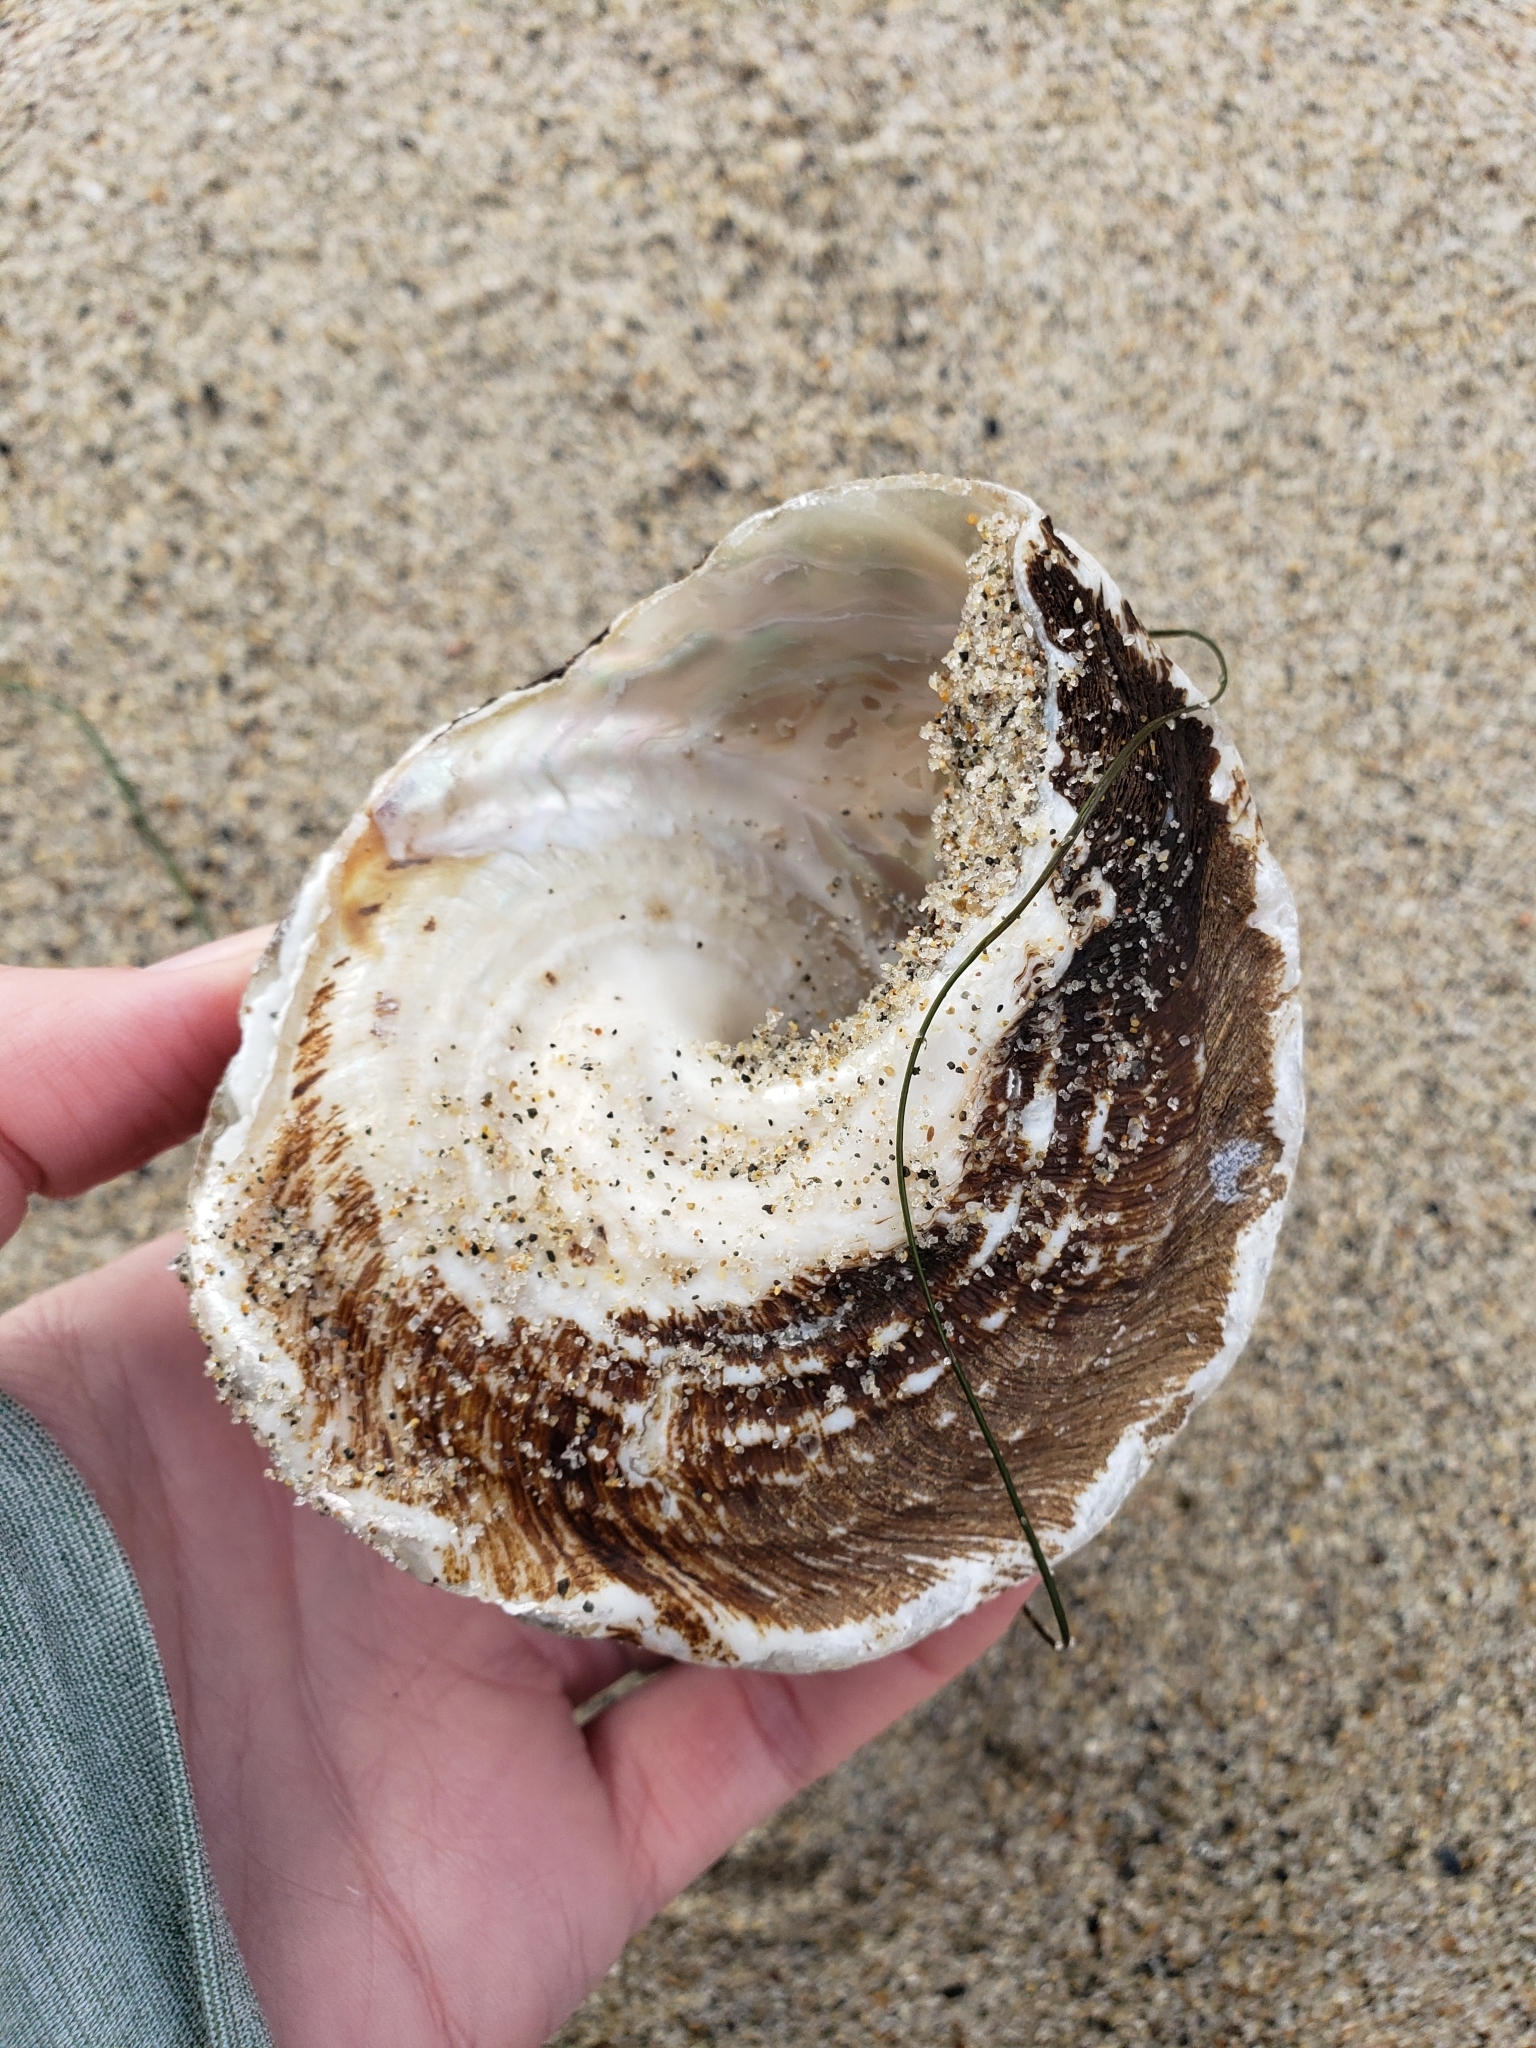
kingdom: Animalia
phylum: Mollusca
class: Gastropoda
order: Trochida
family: Turbinidae
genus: Megastraea
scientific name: Megastraea undosa
